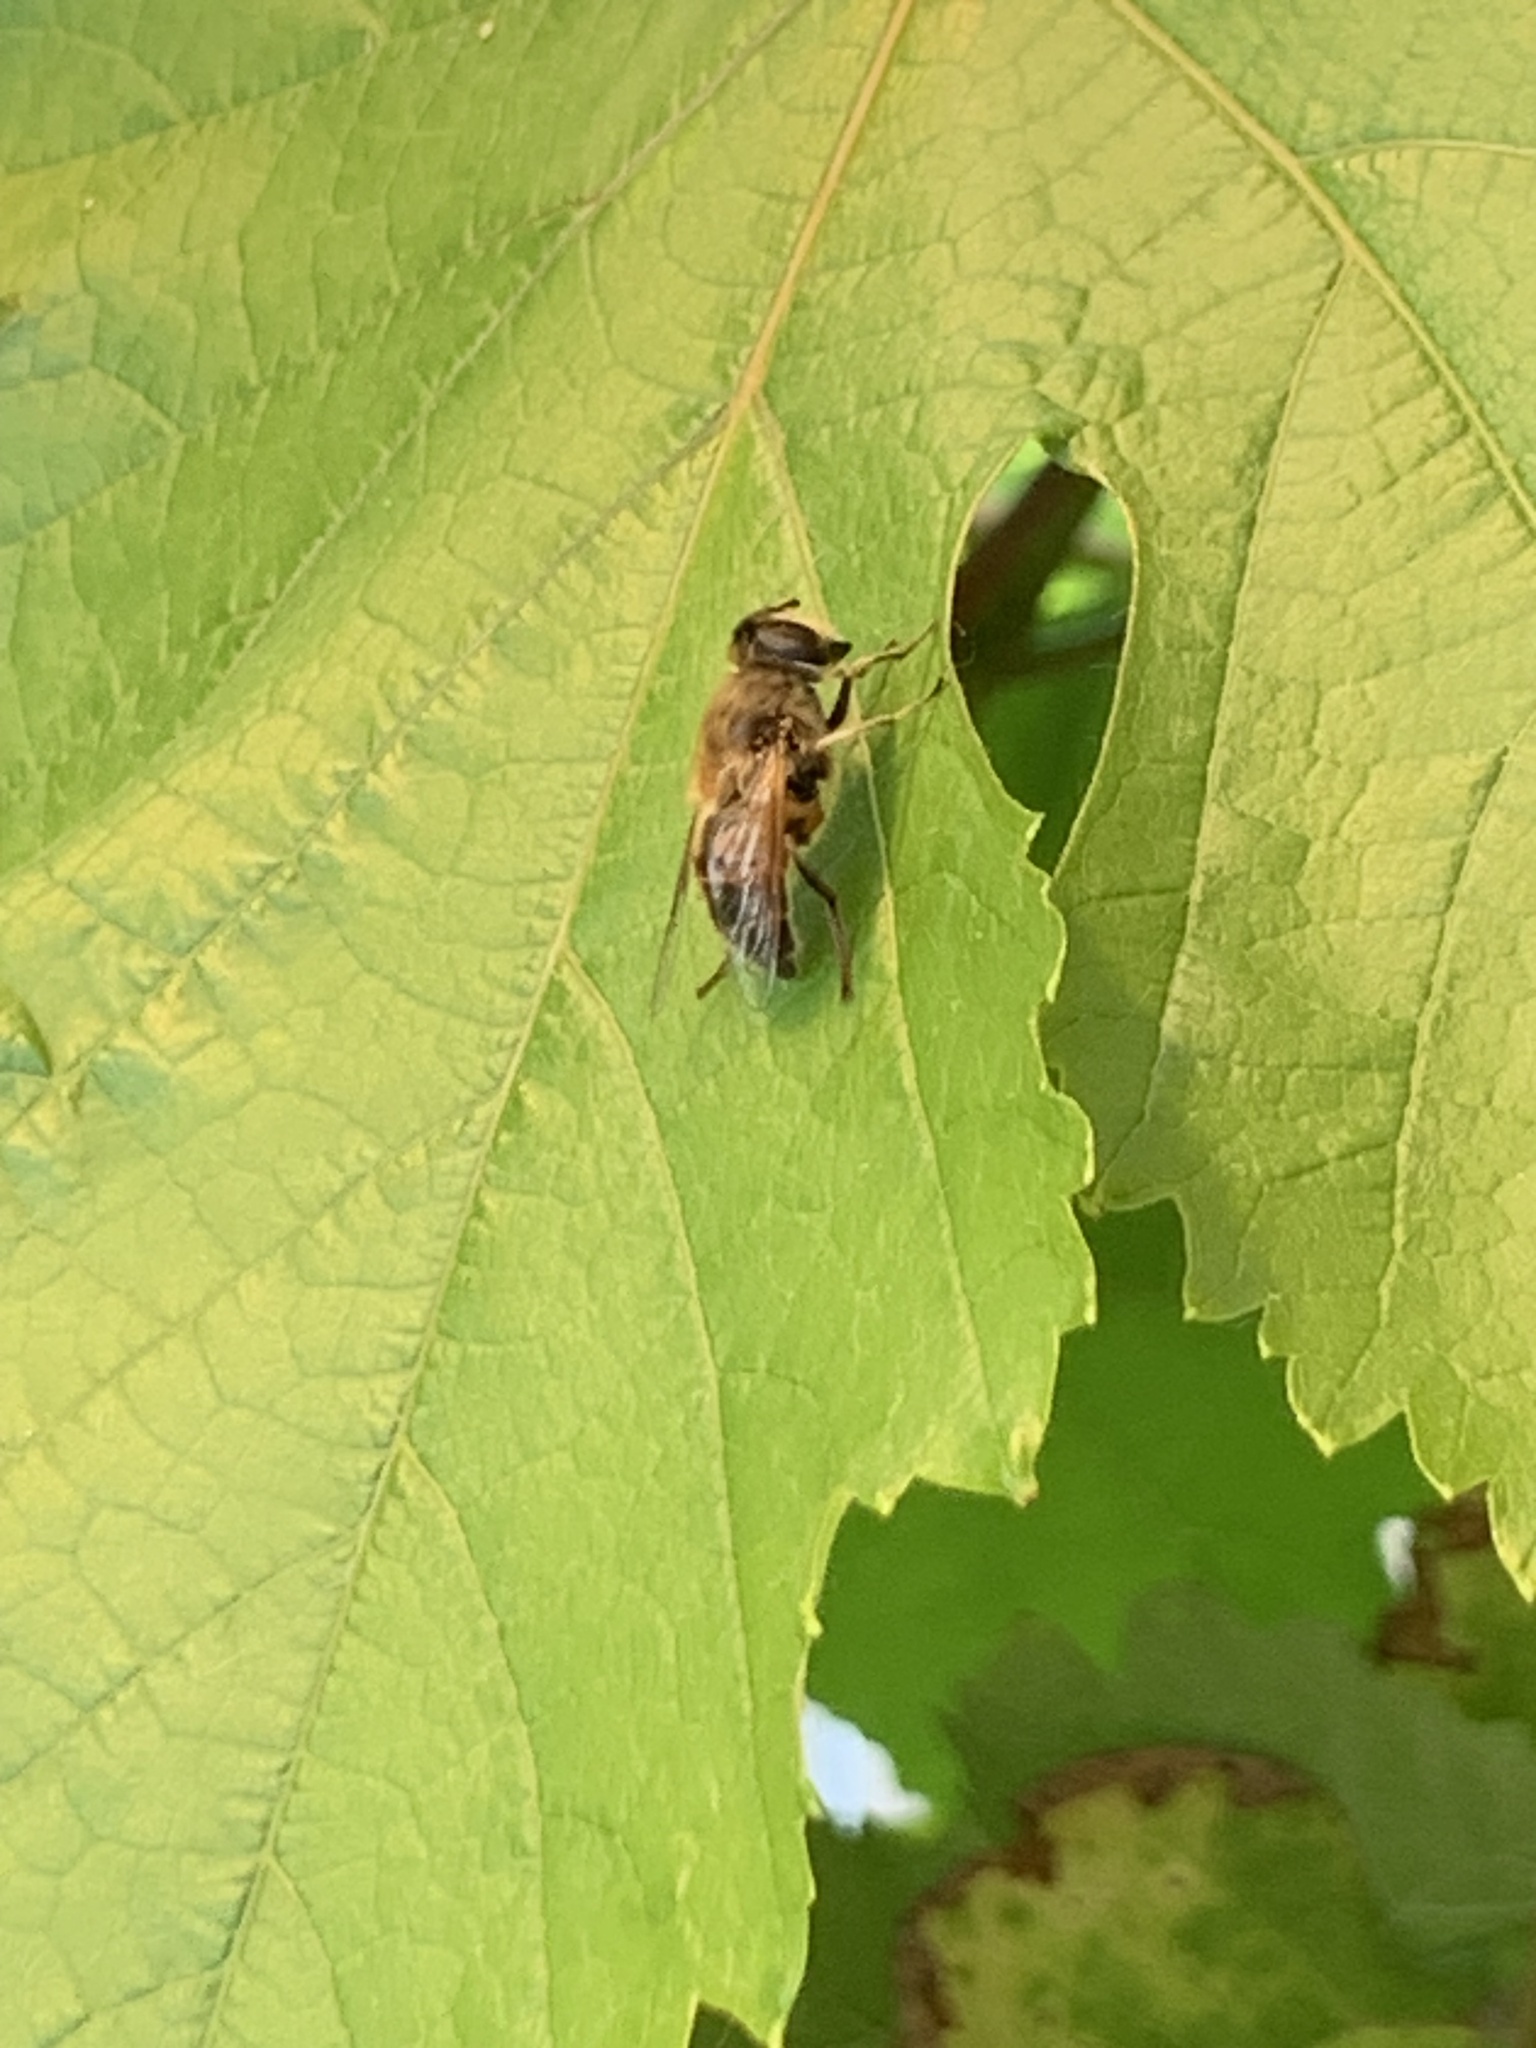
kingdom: Animalia
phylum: Arthropoda
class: Insecta
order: Diptera
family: Syrphidae
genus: Eristalis
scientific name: Eristalis tenax
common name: Drone fly
